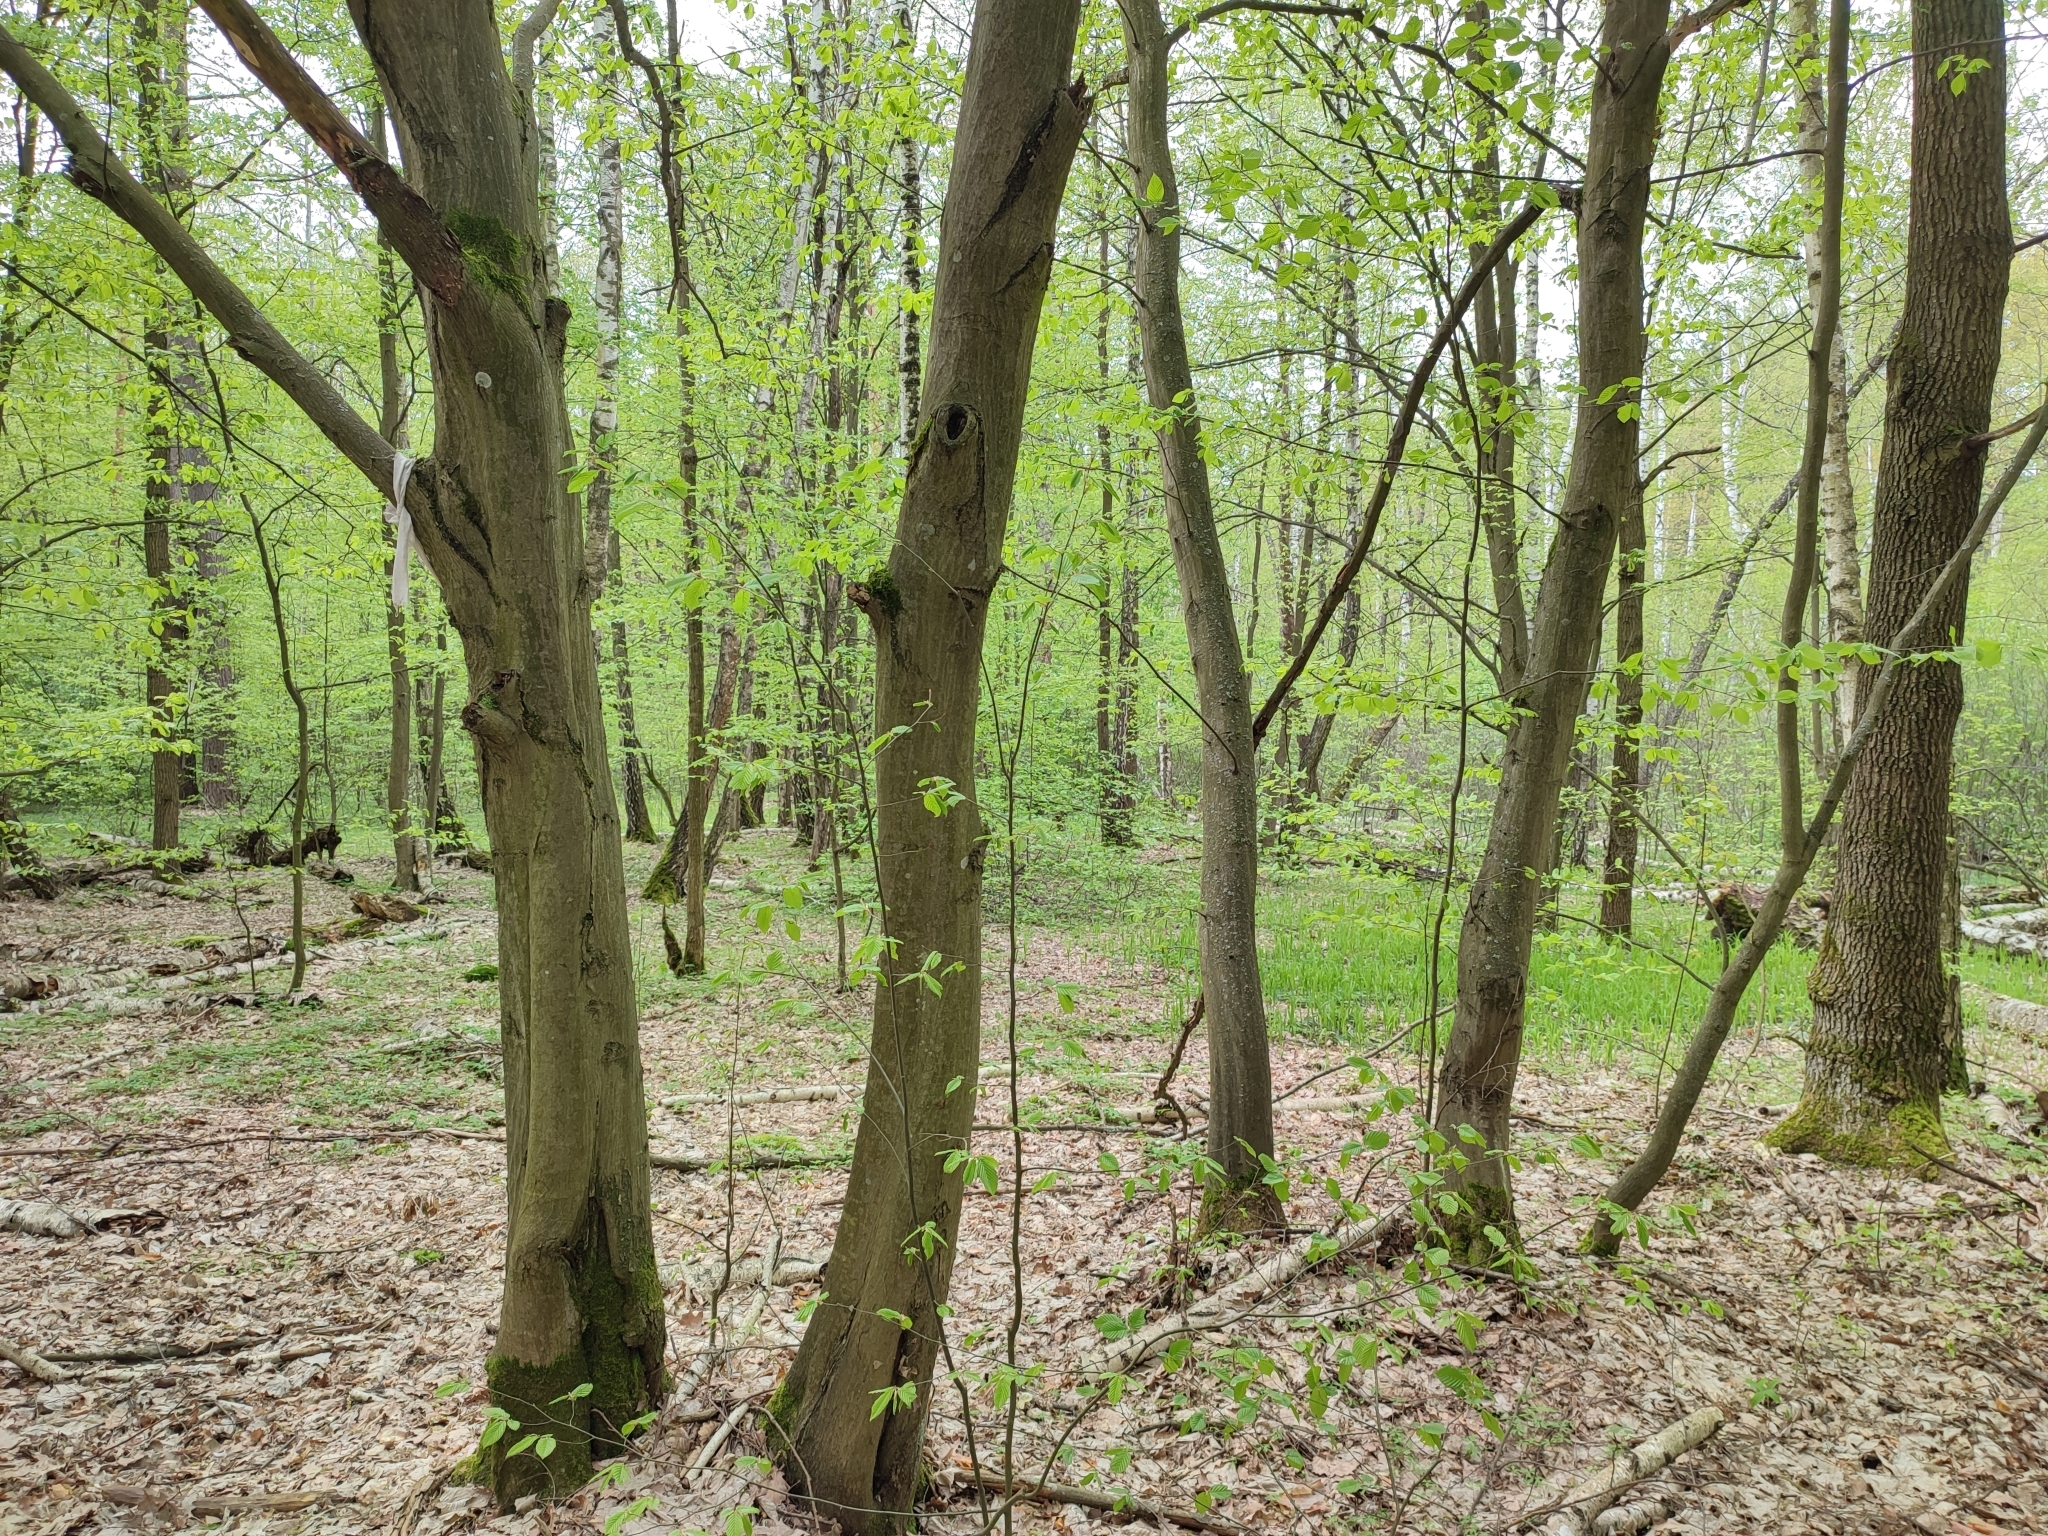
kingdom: Plantae
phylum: Tracheophyta
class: Magnoliopsida
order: Fagales
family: Betulaceae
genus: Carpinus
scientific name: Carpinus betulus
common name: Hornbeam
